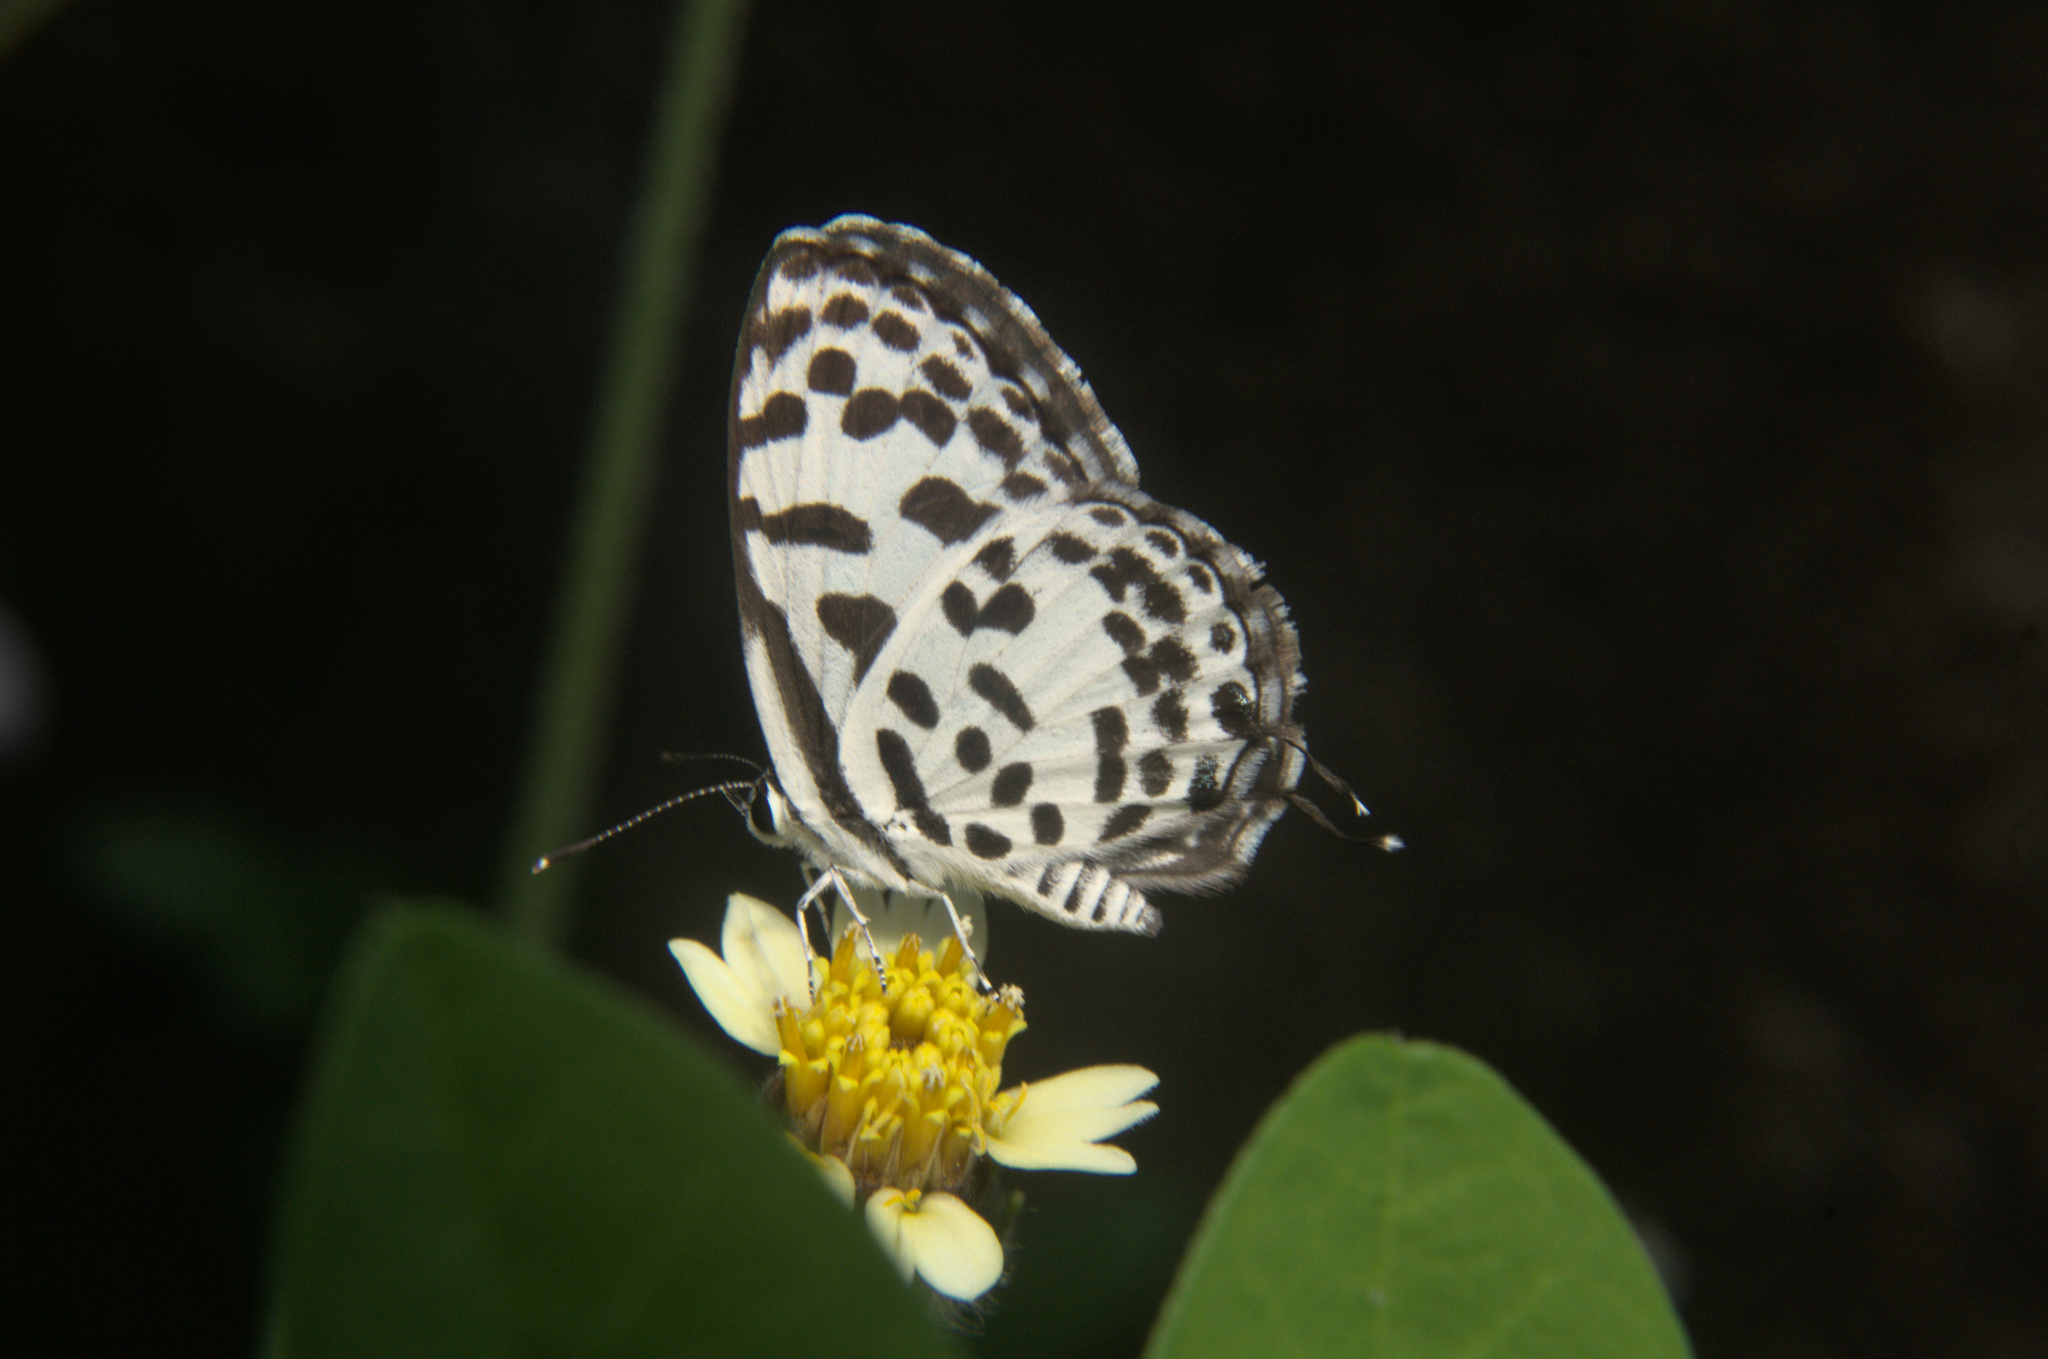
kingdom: Animalia
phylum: Arthropoda
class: Insecta
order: Lepidoptera
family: Lycaenidae
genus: Castalius
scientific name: Castalius rosimon
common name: Common pierrot
